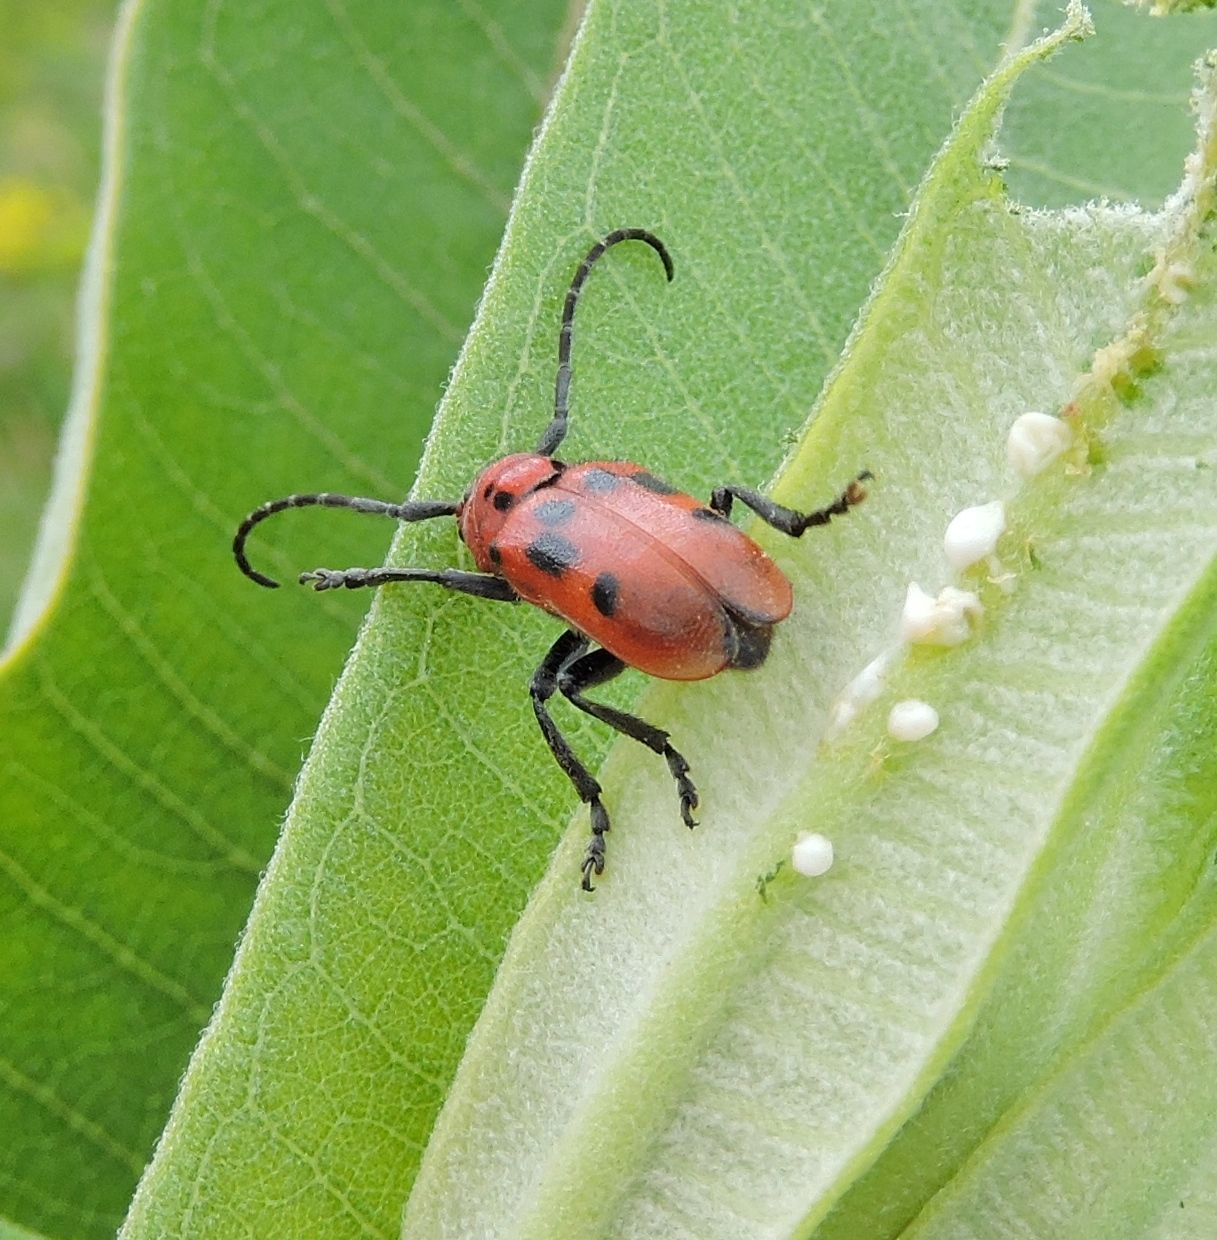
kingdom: Animalia
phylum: Arthropoda
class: Insecta
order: Coleoptera
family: Cerambycidae
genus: Tetraopes
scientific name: Tetraopes tetrophthalmus
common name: Red milkweed beetle
